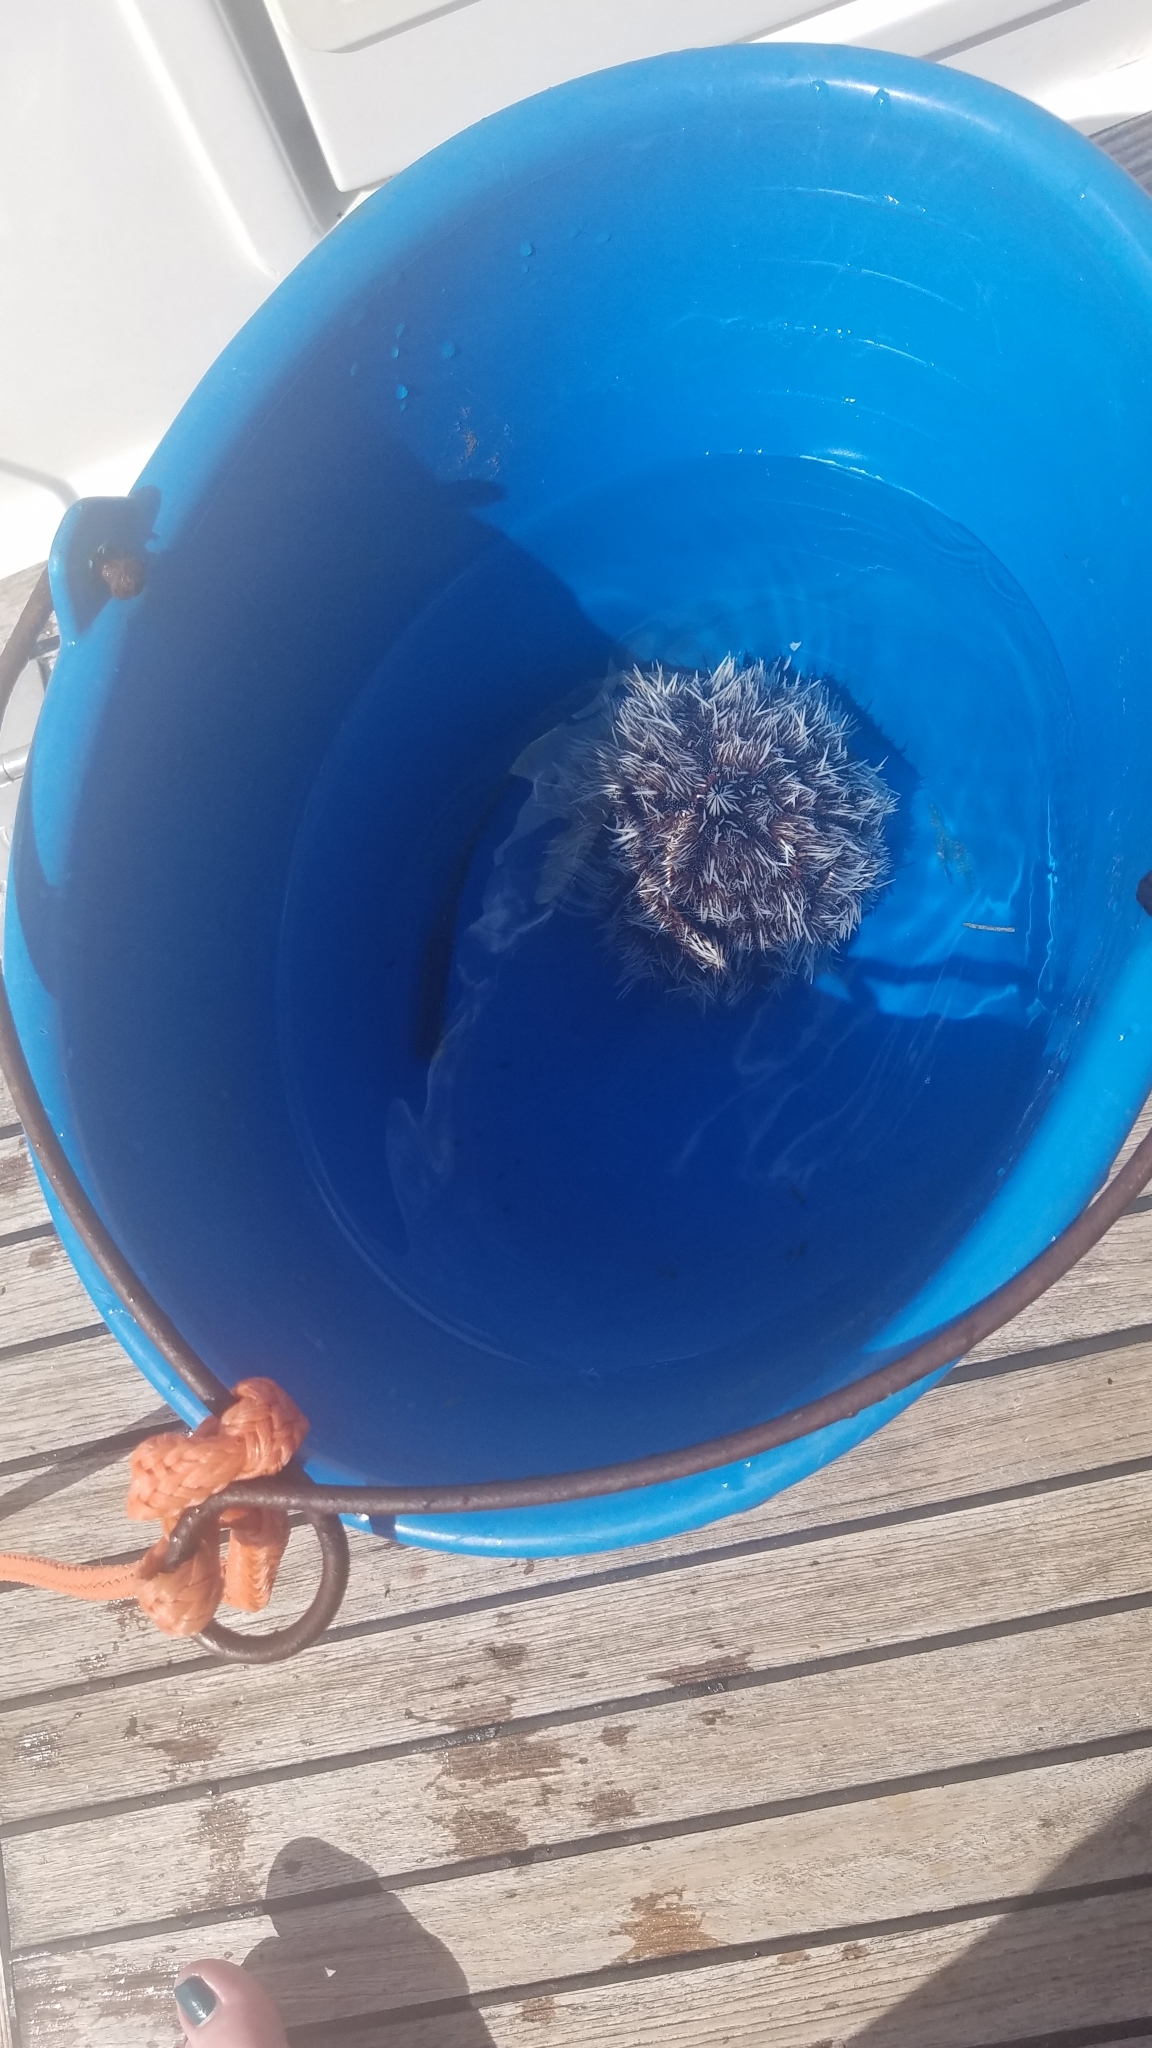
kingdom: Animalia
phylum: Echinodermata
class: Echinoidea
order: Camarodonta
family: Toxopneustidae
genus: Tripneustes
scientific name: Tripneustes ventricosus
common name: West indian sea egg
